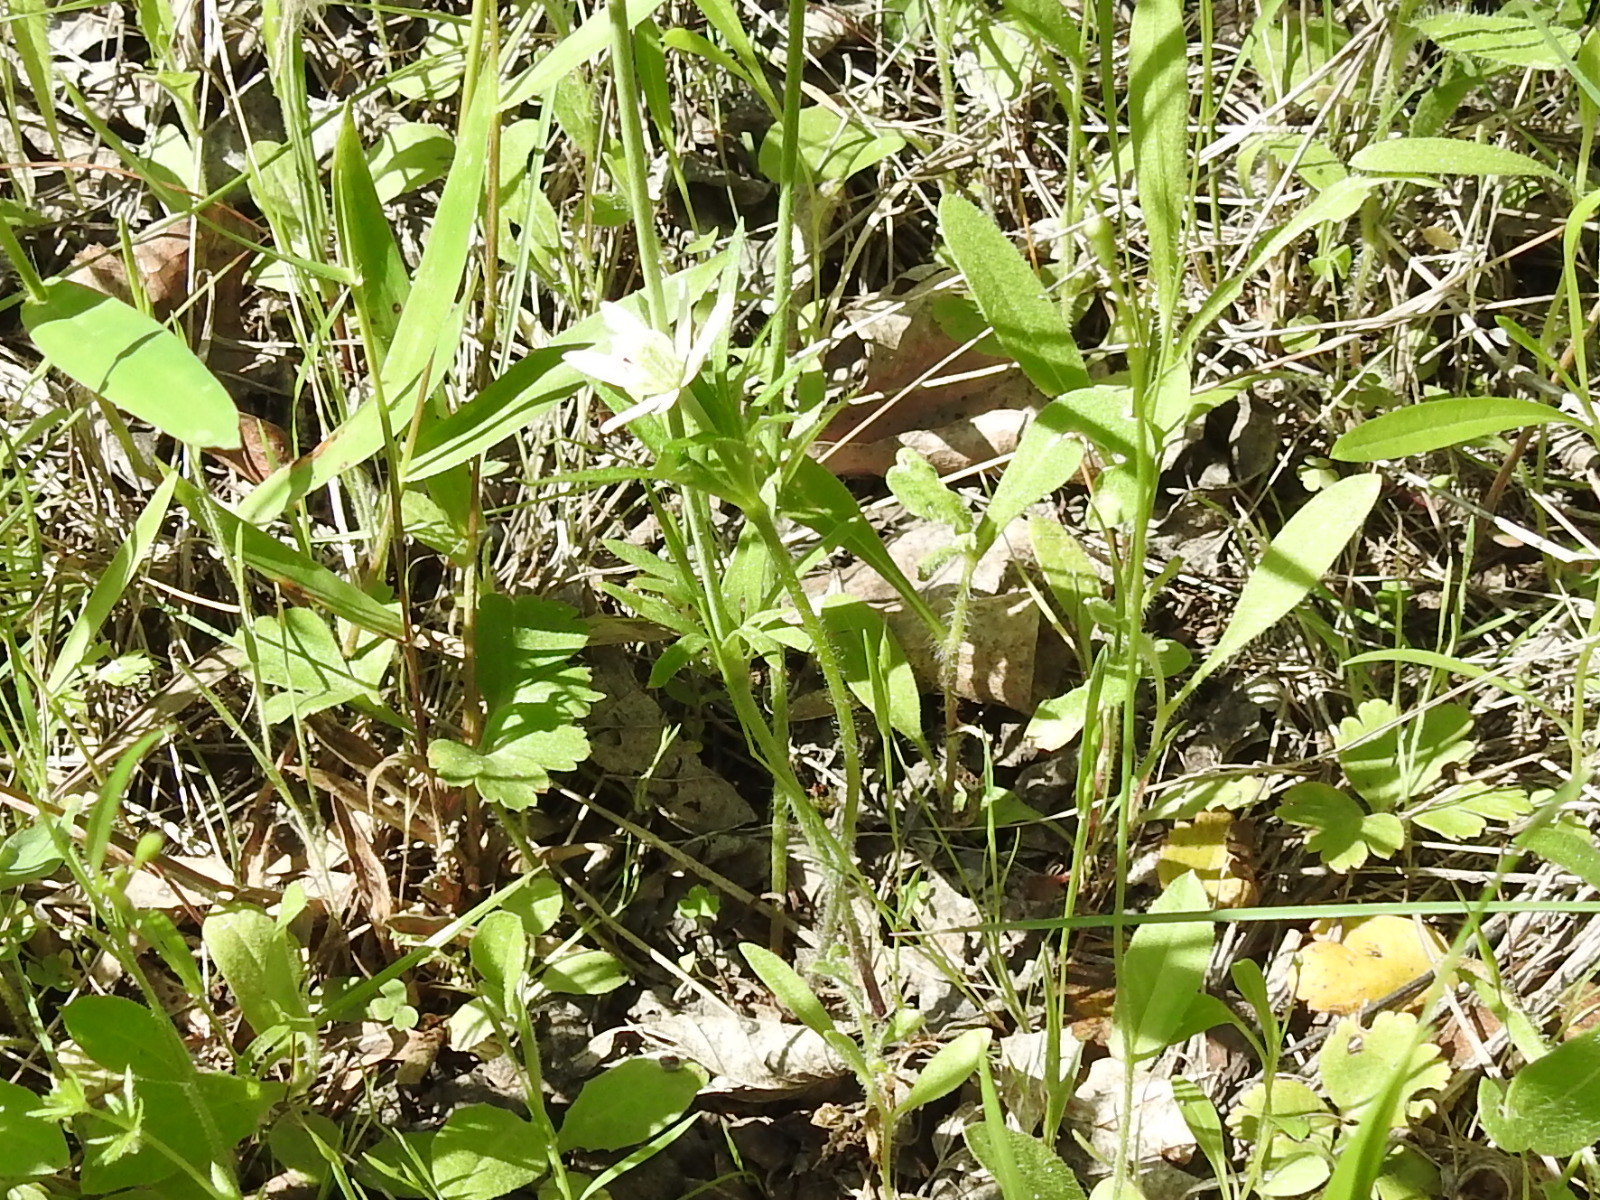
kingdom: Plantae
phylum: Tracheophyta
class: Magnoliopsida
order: Ranunculales
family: Ranunculaceae
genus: Anemone
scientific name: Anemone berlandieri
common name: Ten-petal anemone
